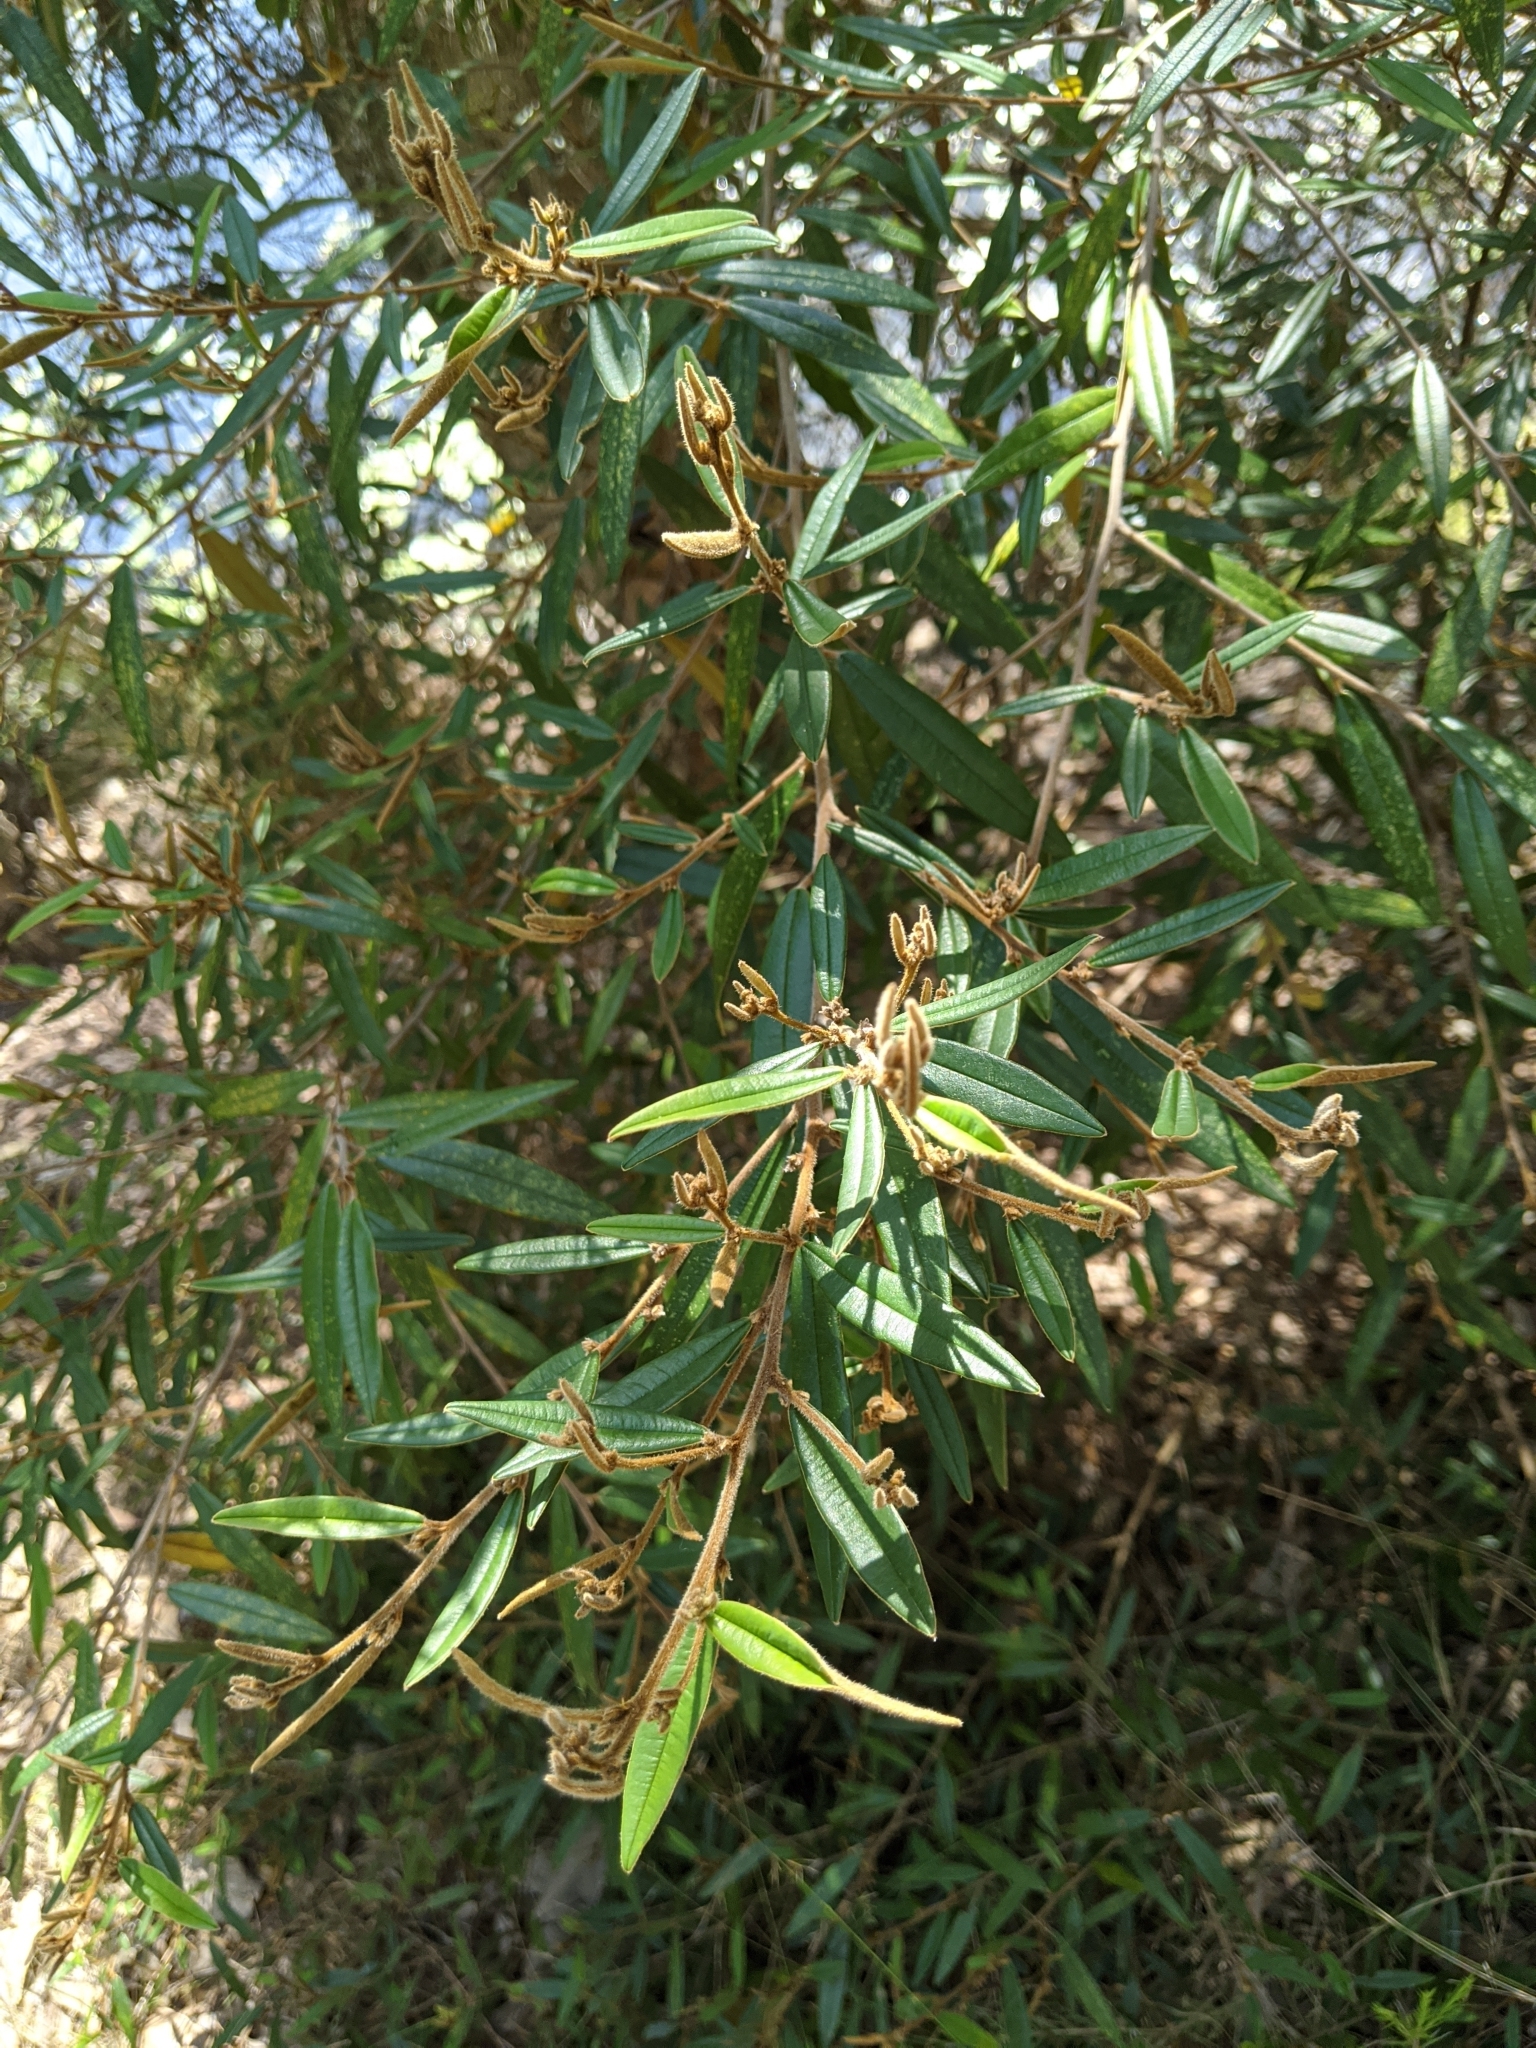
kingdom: Plantae
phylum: Tracheophyta
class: Magnoliopsida
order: Fabales
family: Fabaceae
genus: Hovea
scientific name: Hovea acutifolia
